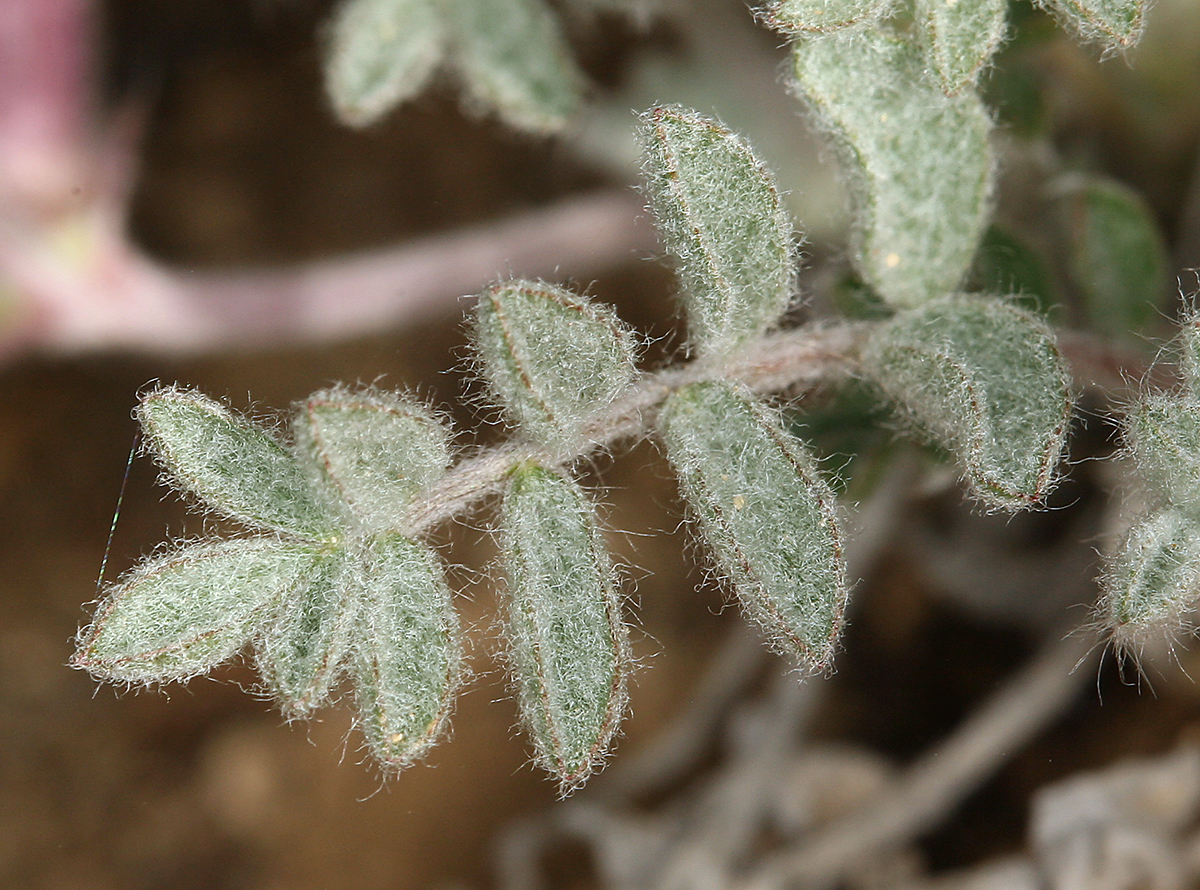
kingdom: Plantae
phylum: Tracheophyta
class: Magnoliopsida
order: Fabales
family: Fabaceae
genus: Astragalus
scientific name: Astragalus purshii
